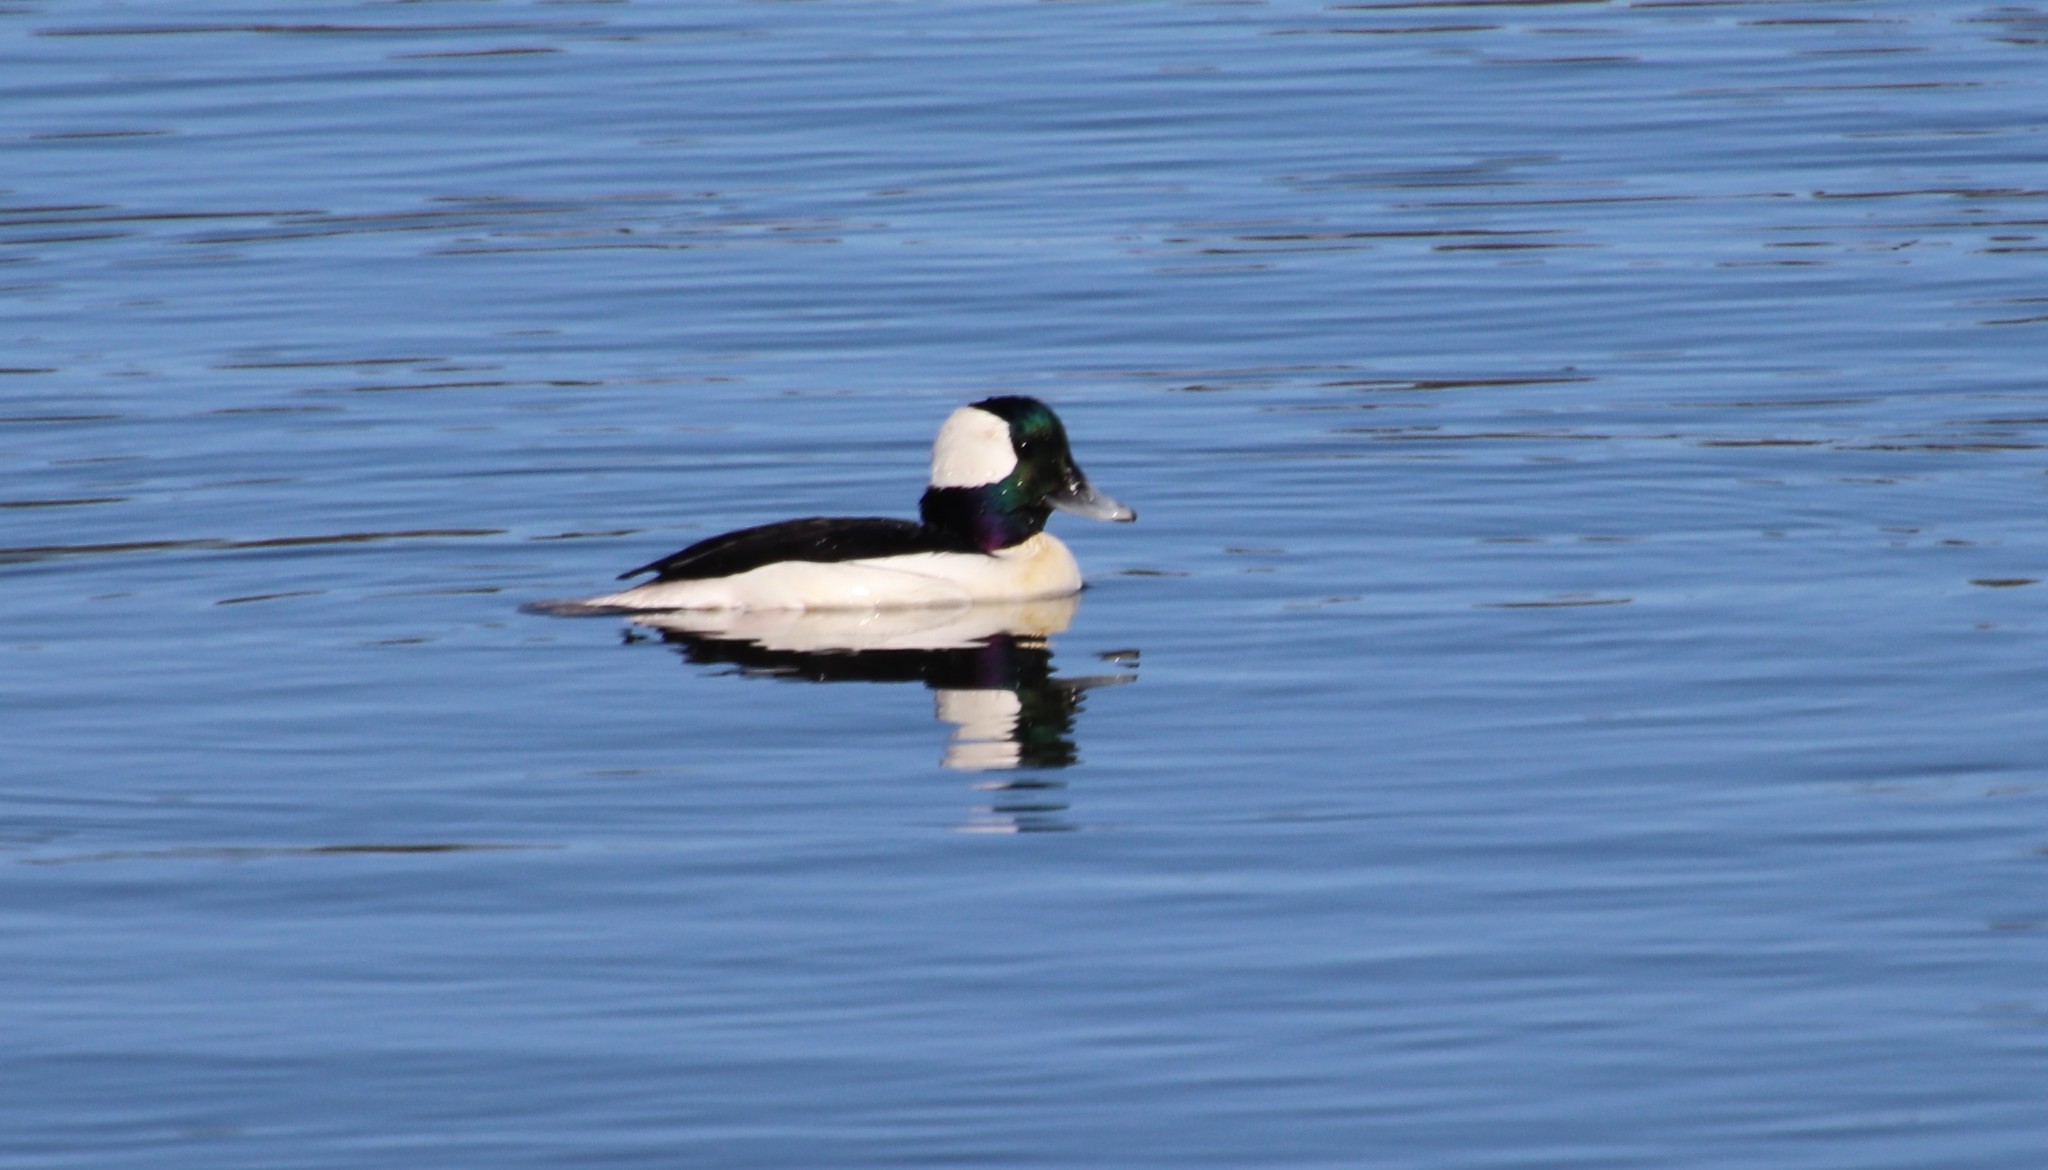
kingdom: Animalia
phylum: Chordata
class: Aves
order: Anseriformes
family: Anatidae
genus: Bucephala
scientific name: Bucephala albeola
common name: Bufflehead
